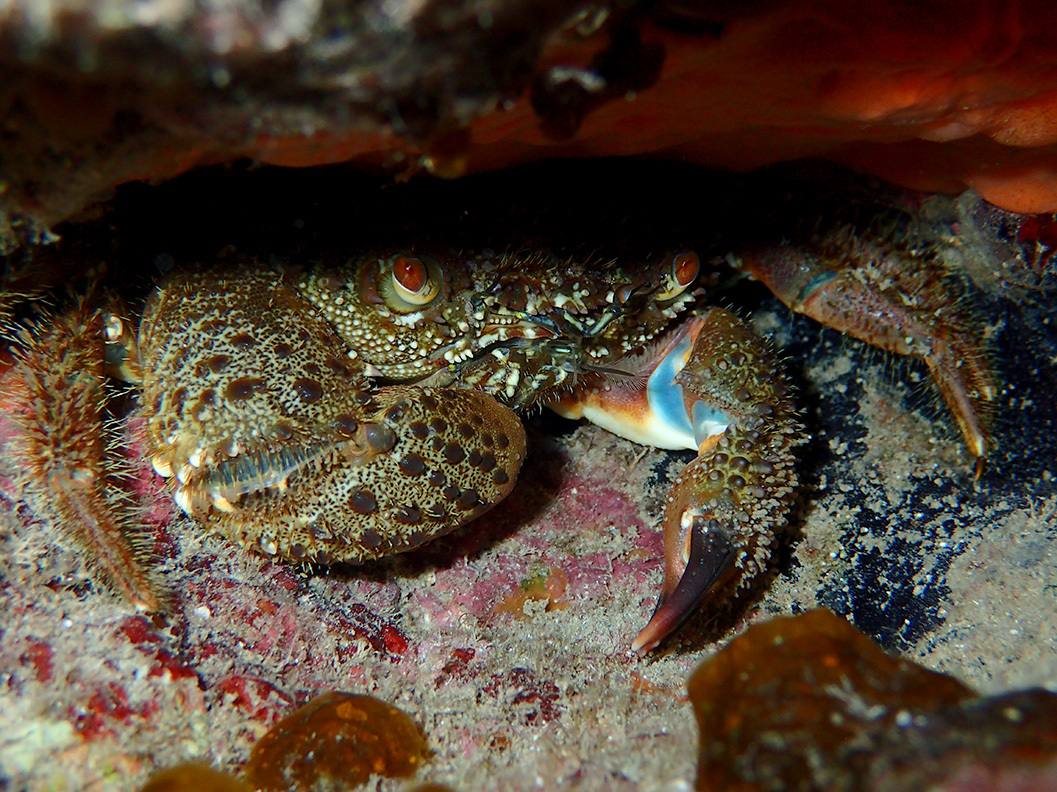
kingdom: Animalia
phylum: Arthropoda
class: Malacostraca
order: Decapoda
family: Eriphiidae
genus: Eriphia
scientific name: Eriphia verrucosa
